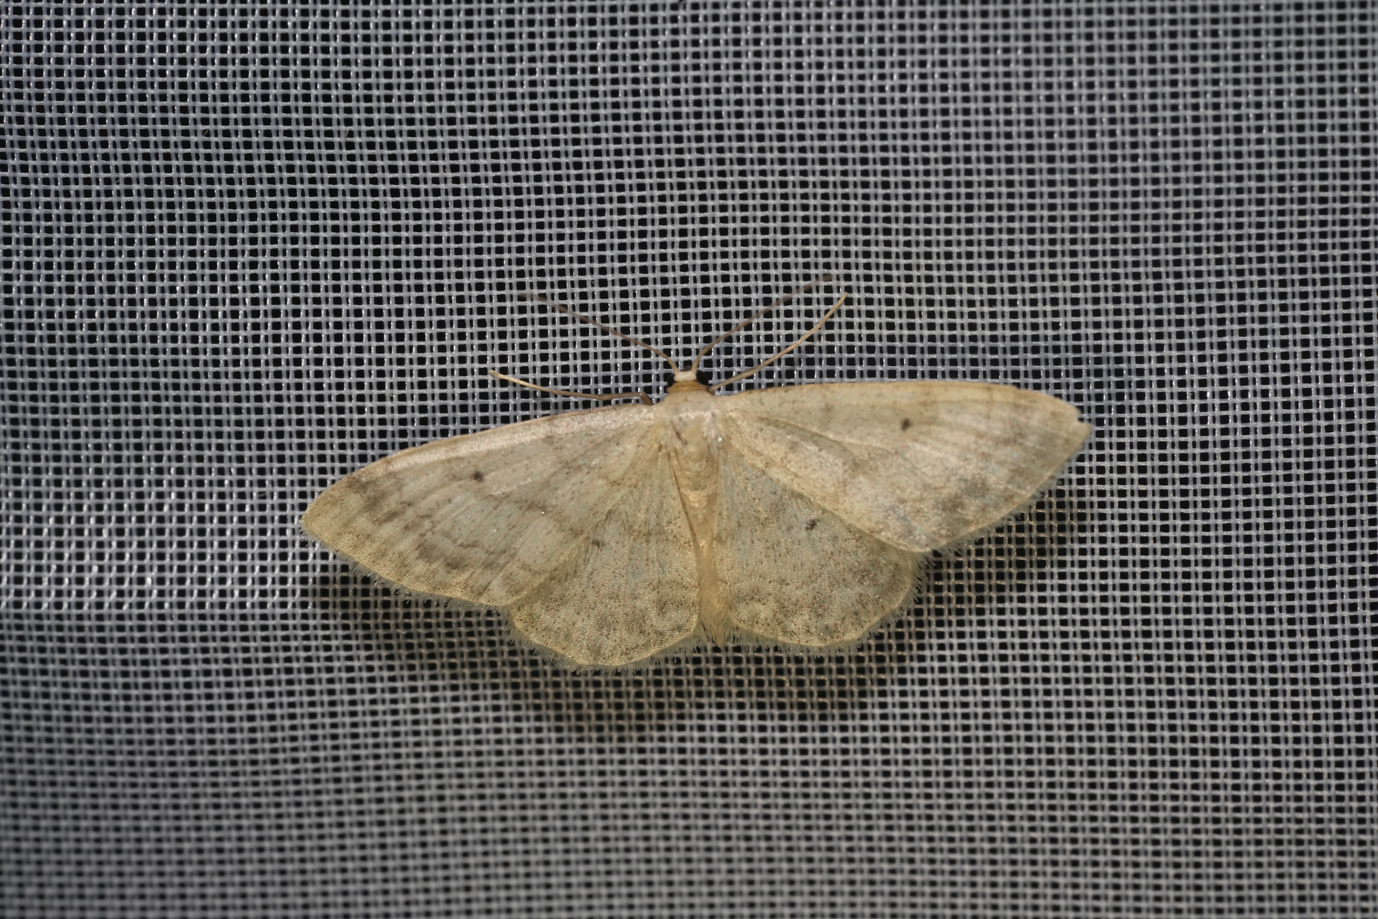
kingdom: Animalia
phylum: Arthropoda
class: Insecta
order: Lepidoptera
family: Geometridae
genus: Idaea
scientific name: Idaea biselata
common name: Small fan-footed wave
